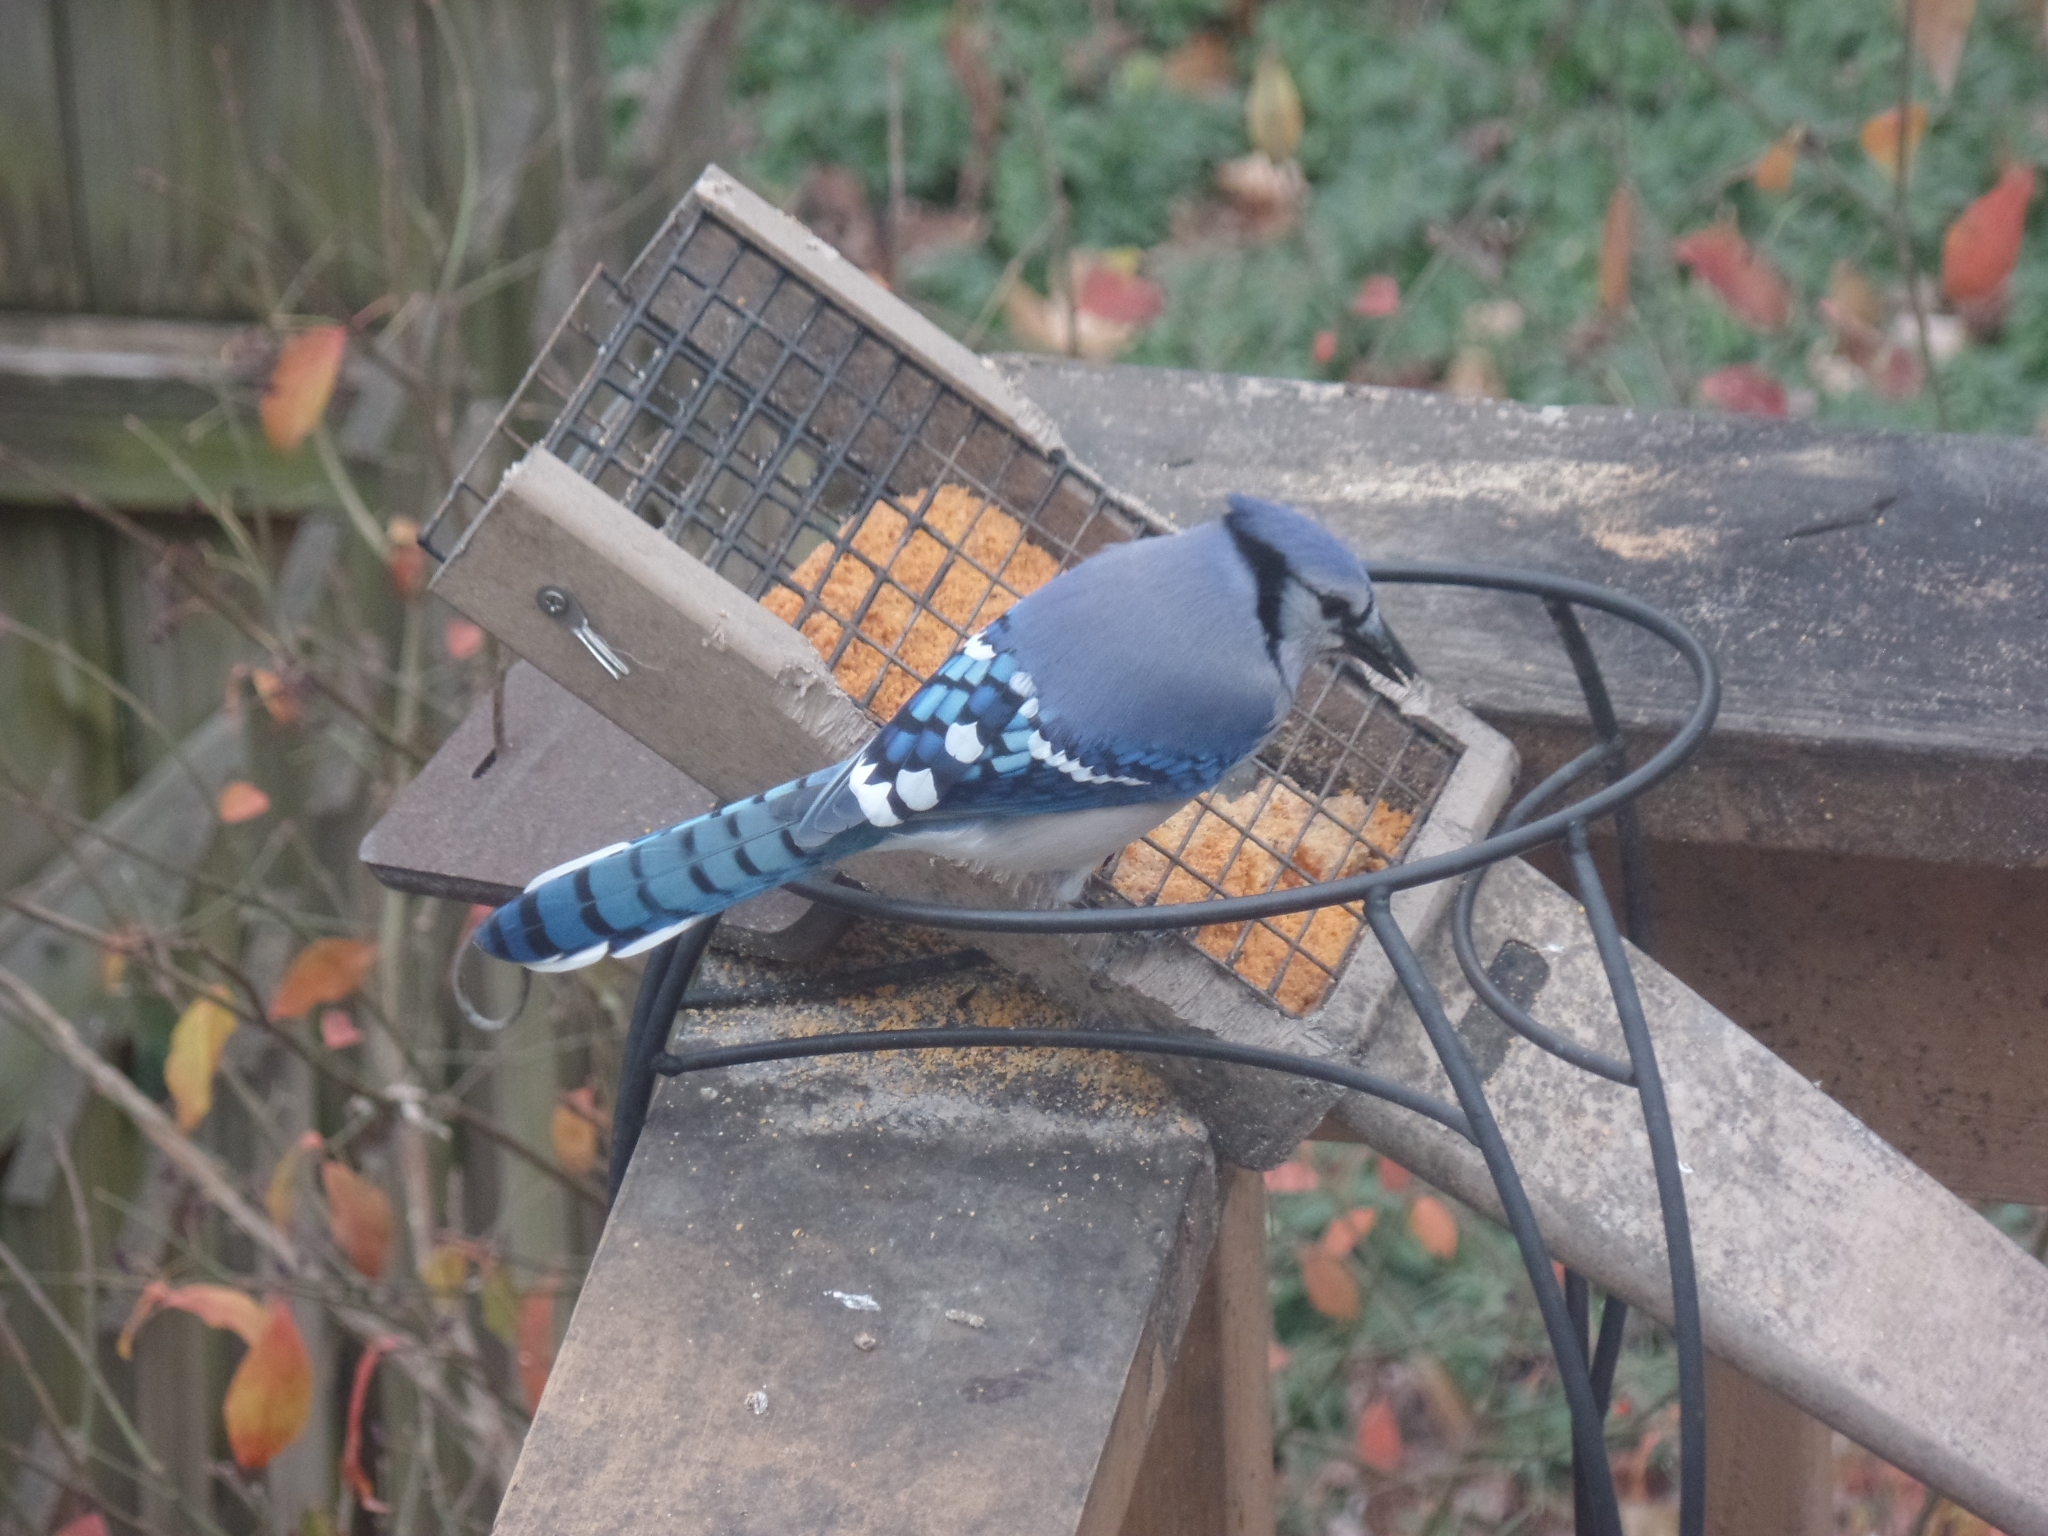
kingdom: Animalia
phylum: Chordata
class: Aves
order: Passeriformes
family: Corvidae
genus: Cyanocitta
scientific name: Cyanocitta cristata
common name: Blue jay
